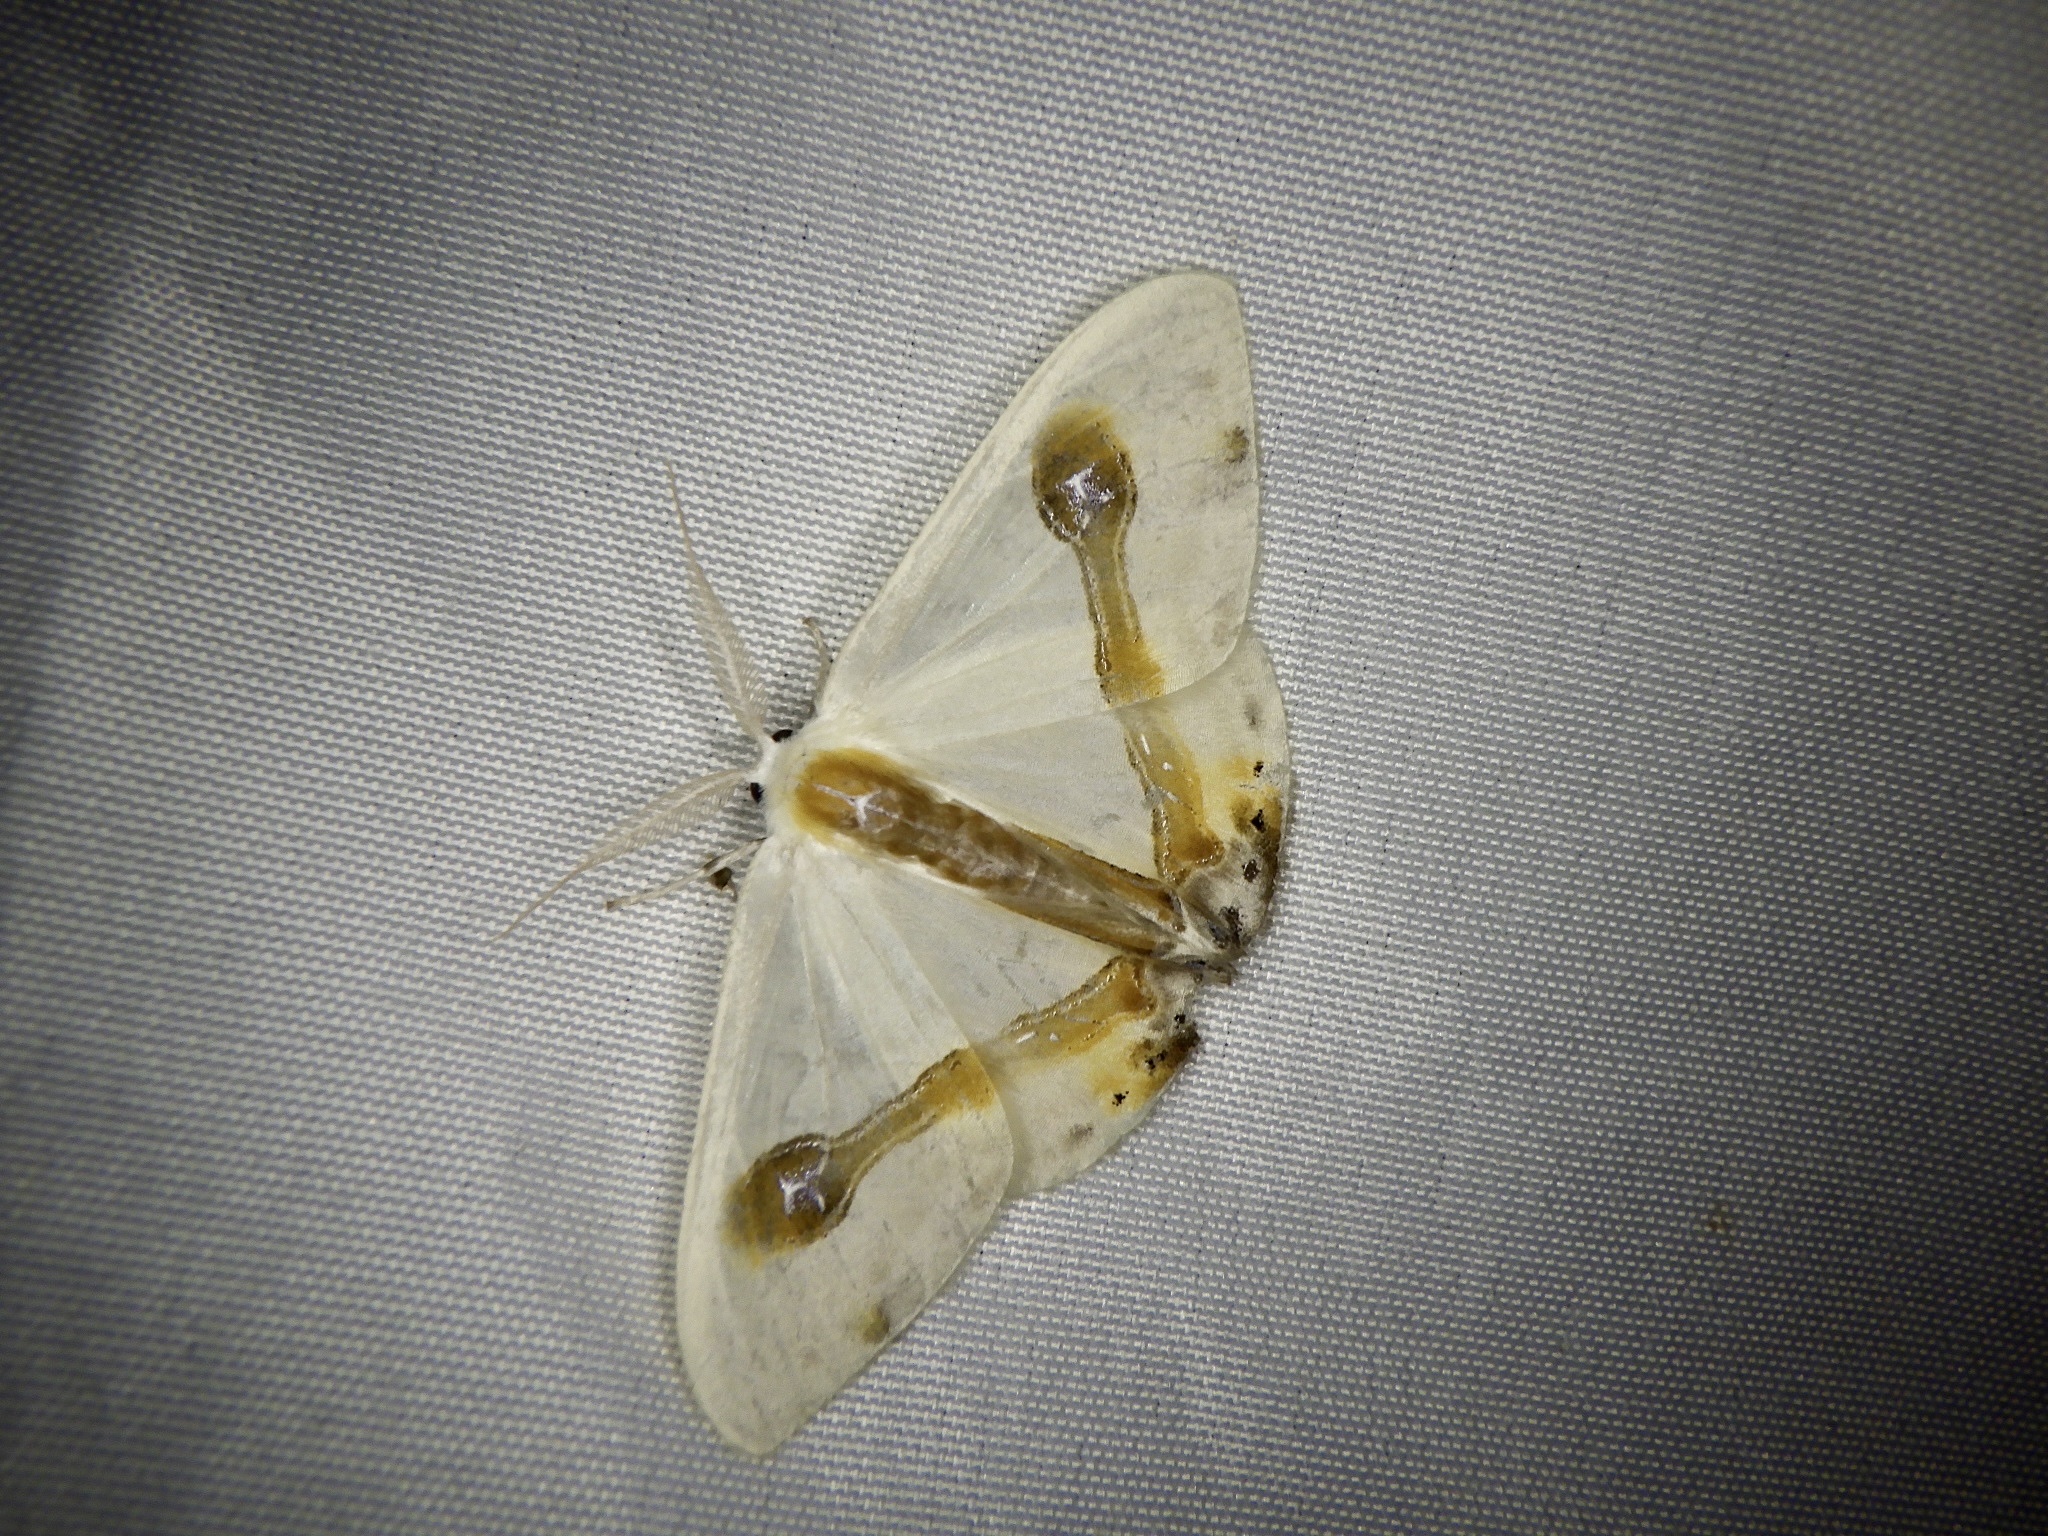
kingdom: Animalia
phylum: Arthropoda
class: Insecta
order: Lepidoptera
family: Drepanidae
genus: Macrocilix
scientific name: Macrocilix mysticata
